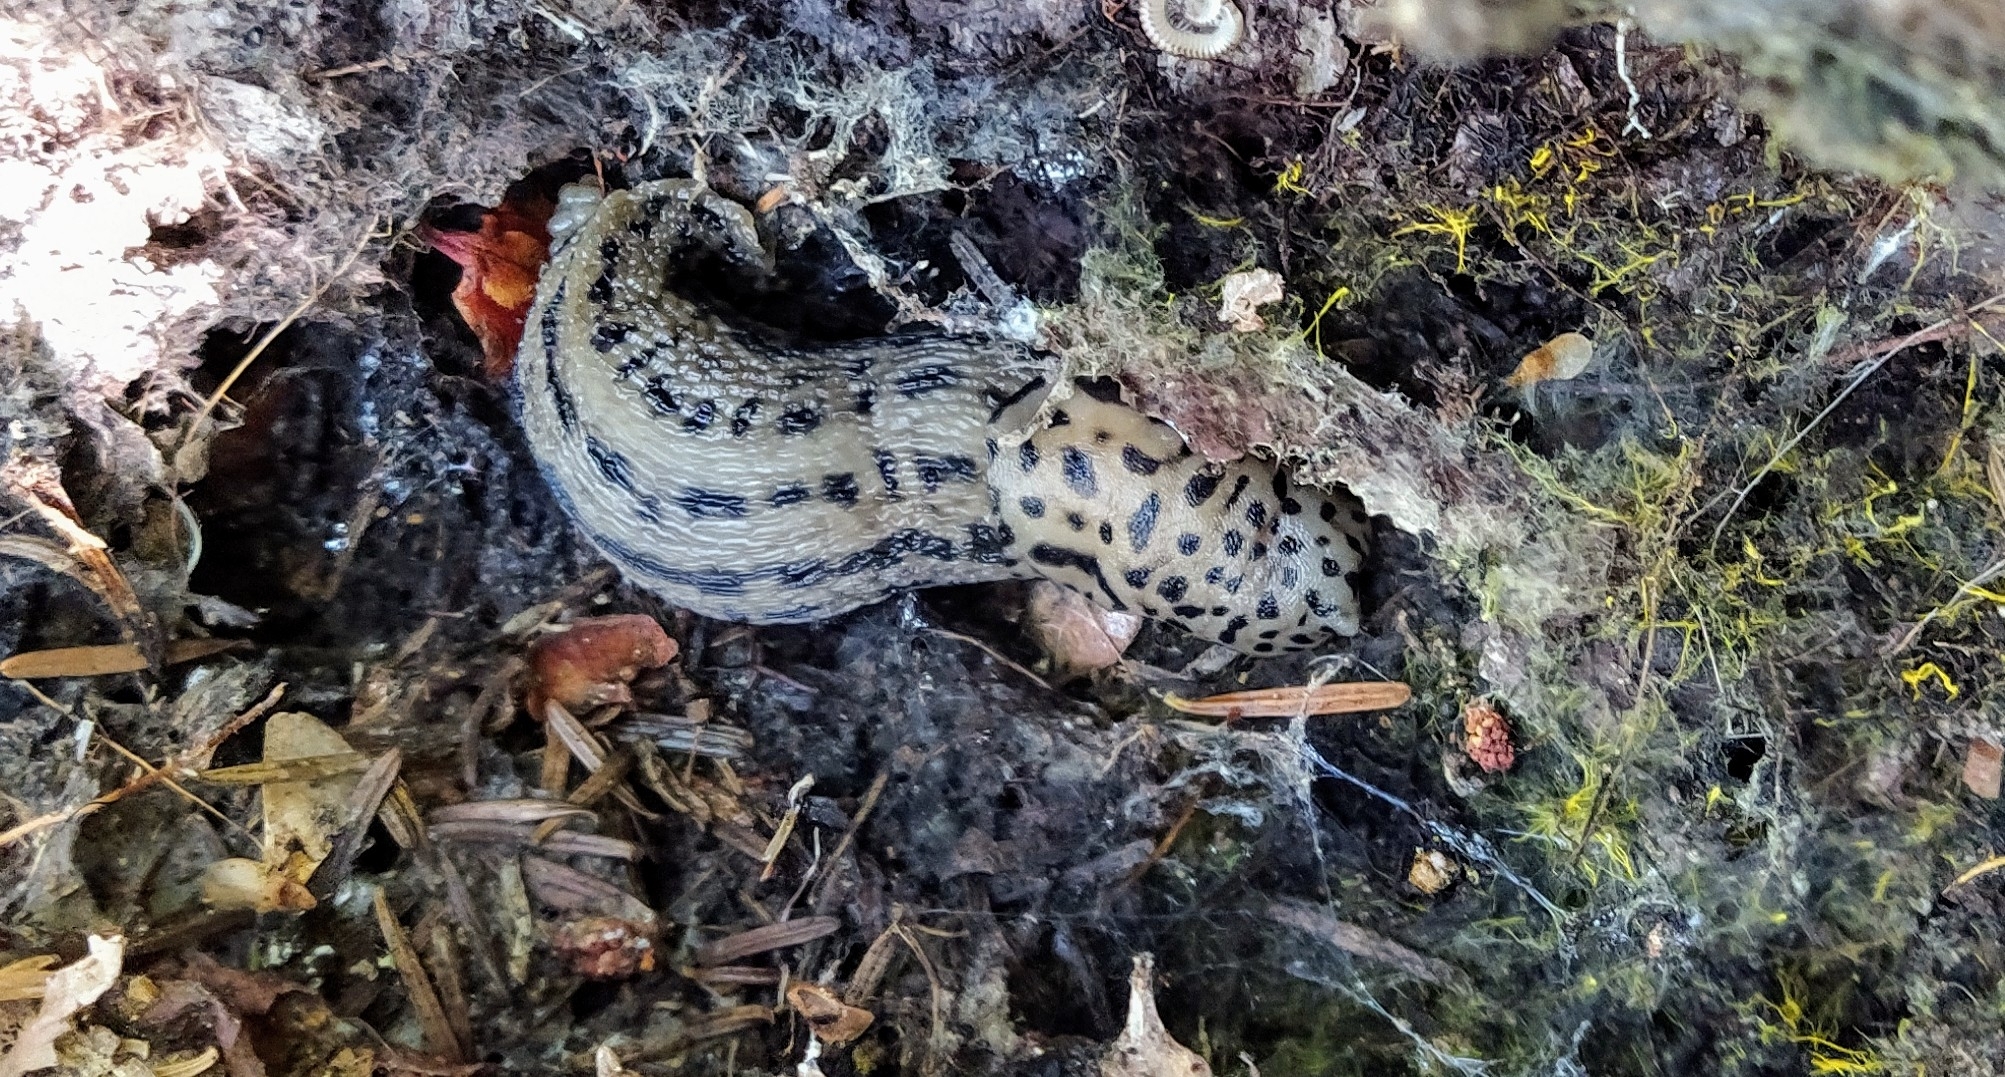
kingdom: Animalia
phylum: Mollusca
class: Gastropoda
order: Stylommatophora
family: Limacidae
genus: Limax
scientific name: Limax maximus
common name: Great grey slug
